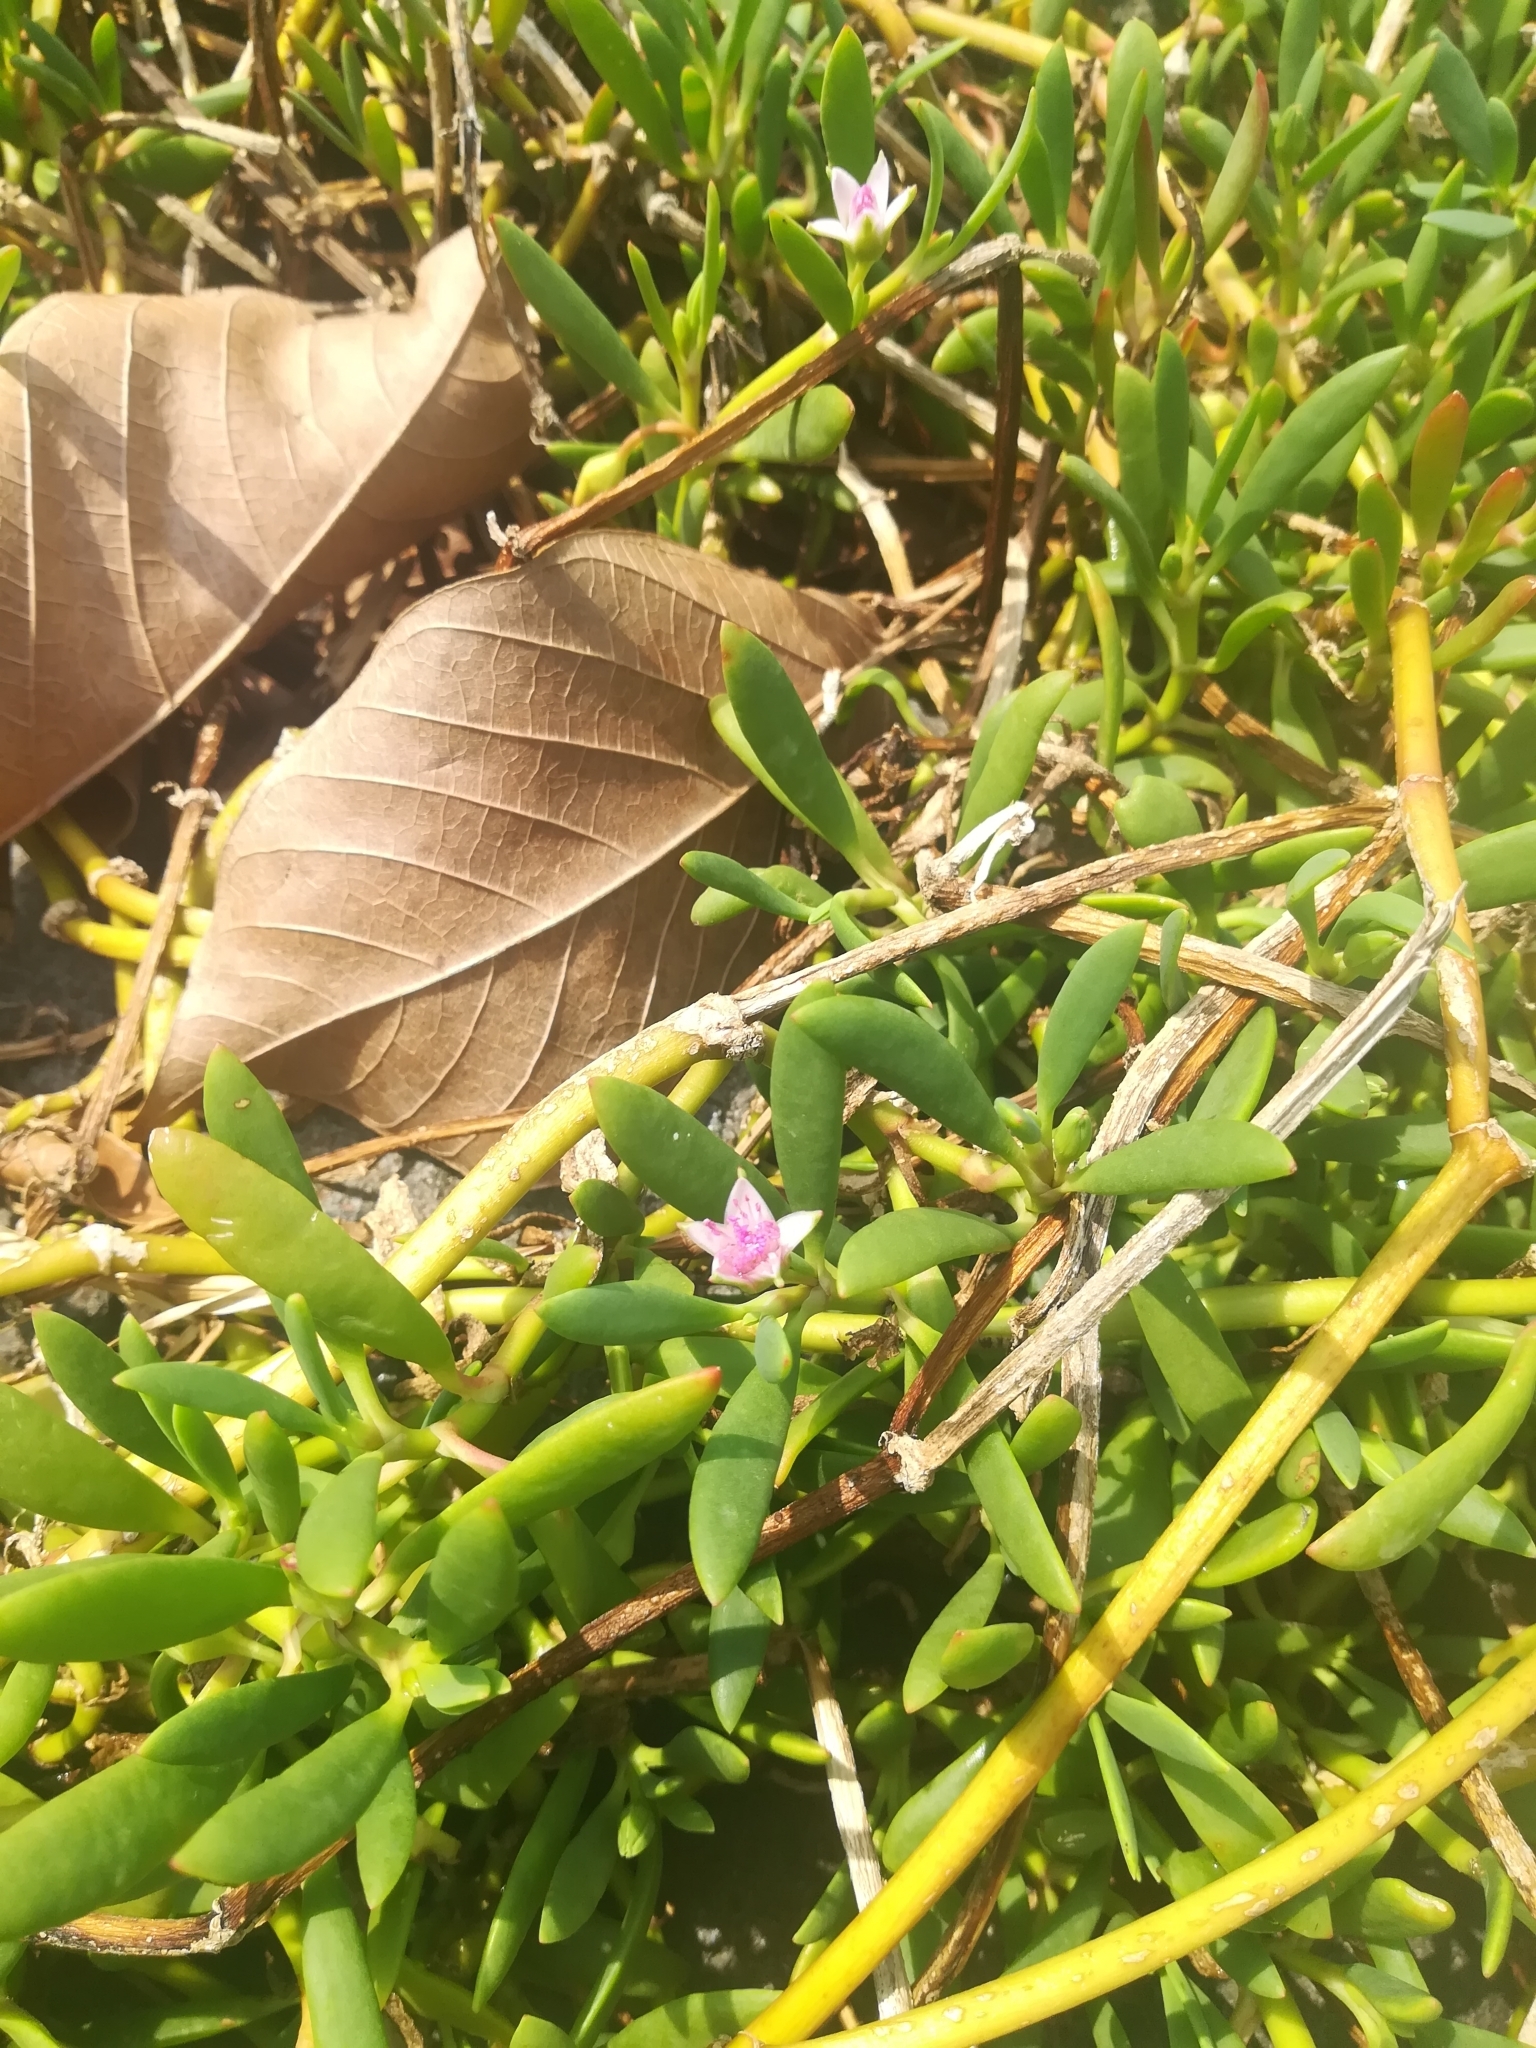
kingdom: Plantae
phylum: Tracheophyta
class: Magnoliopsida
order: Caryophyllales
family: Aizoaceae
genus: Sesuvium
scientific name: Sesuvium portulacastrum
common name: Sea-purslane
